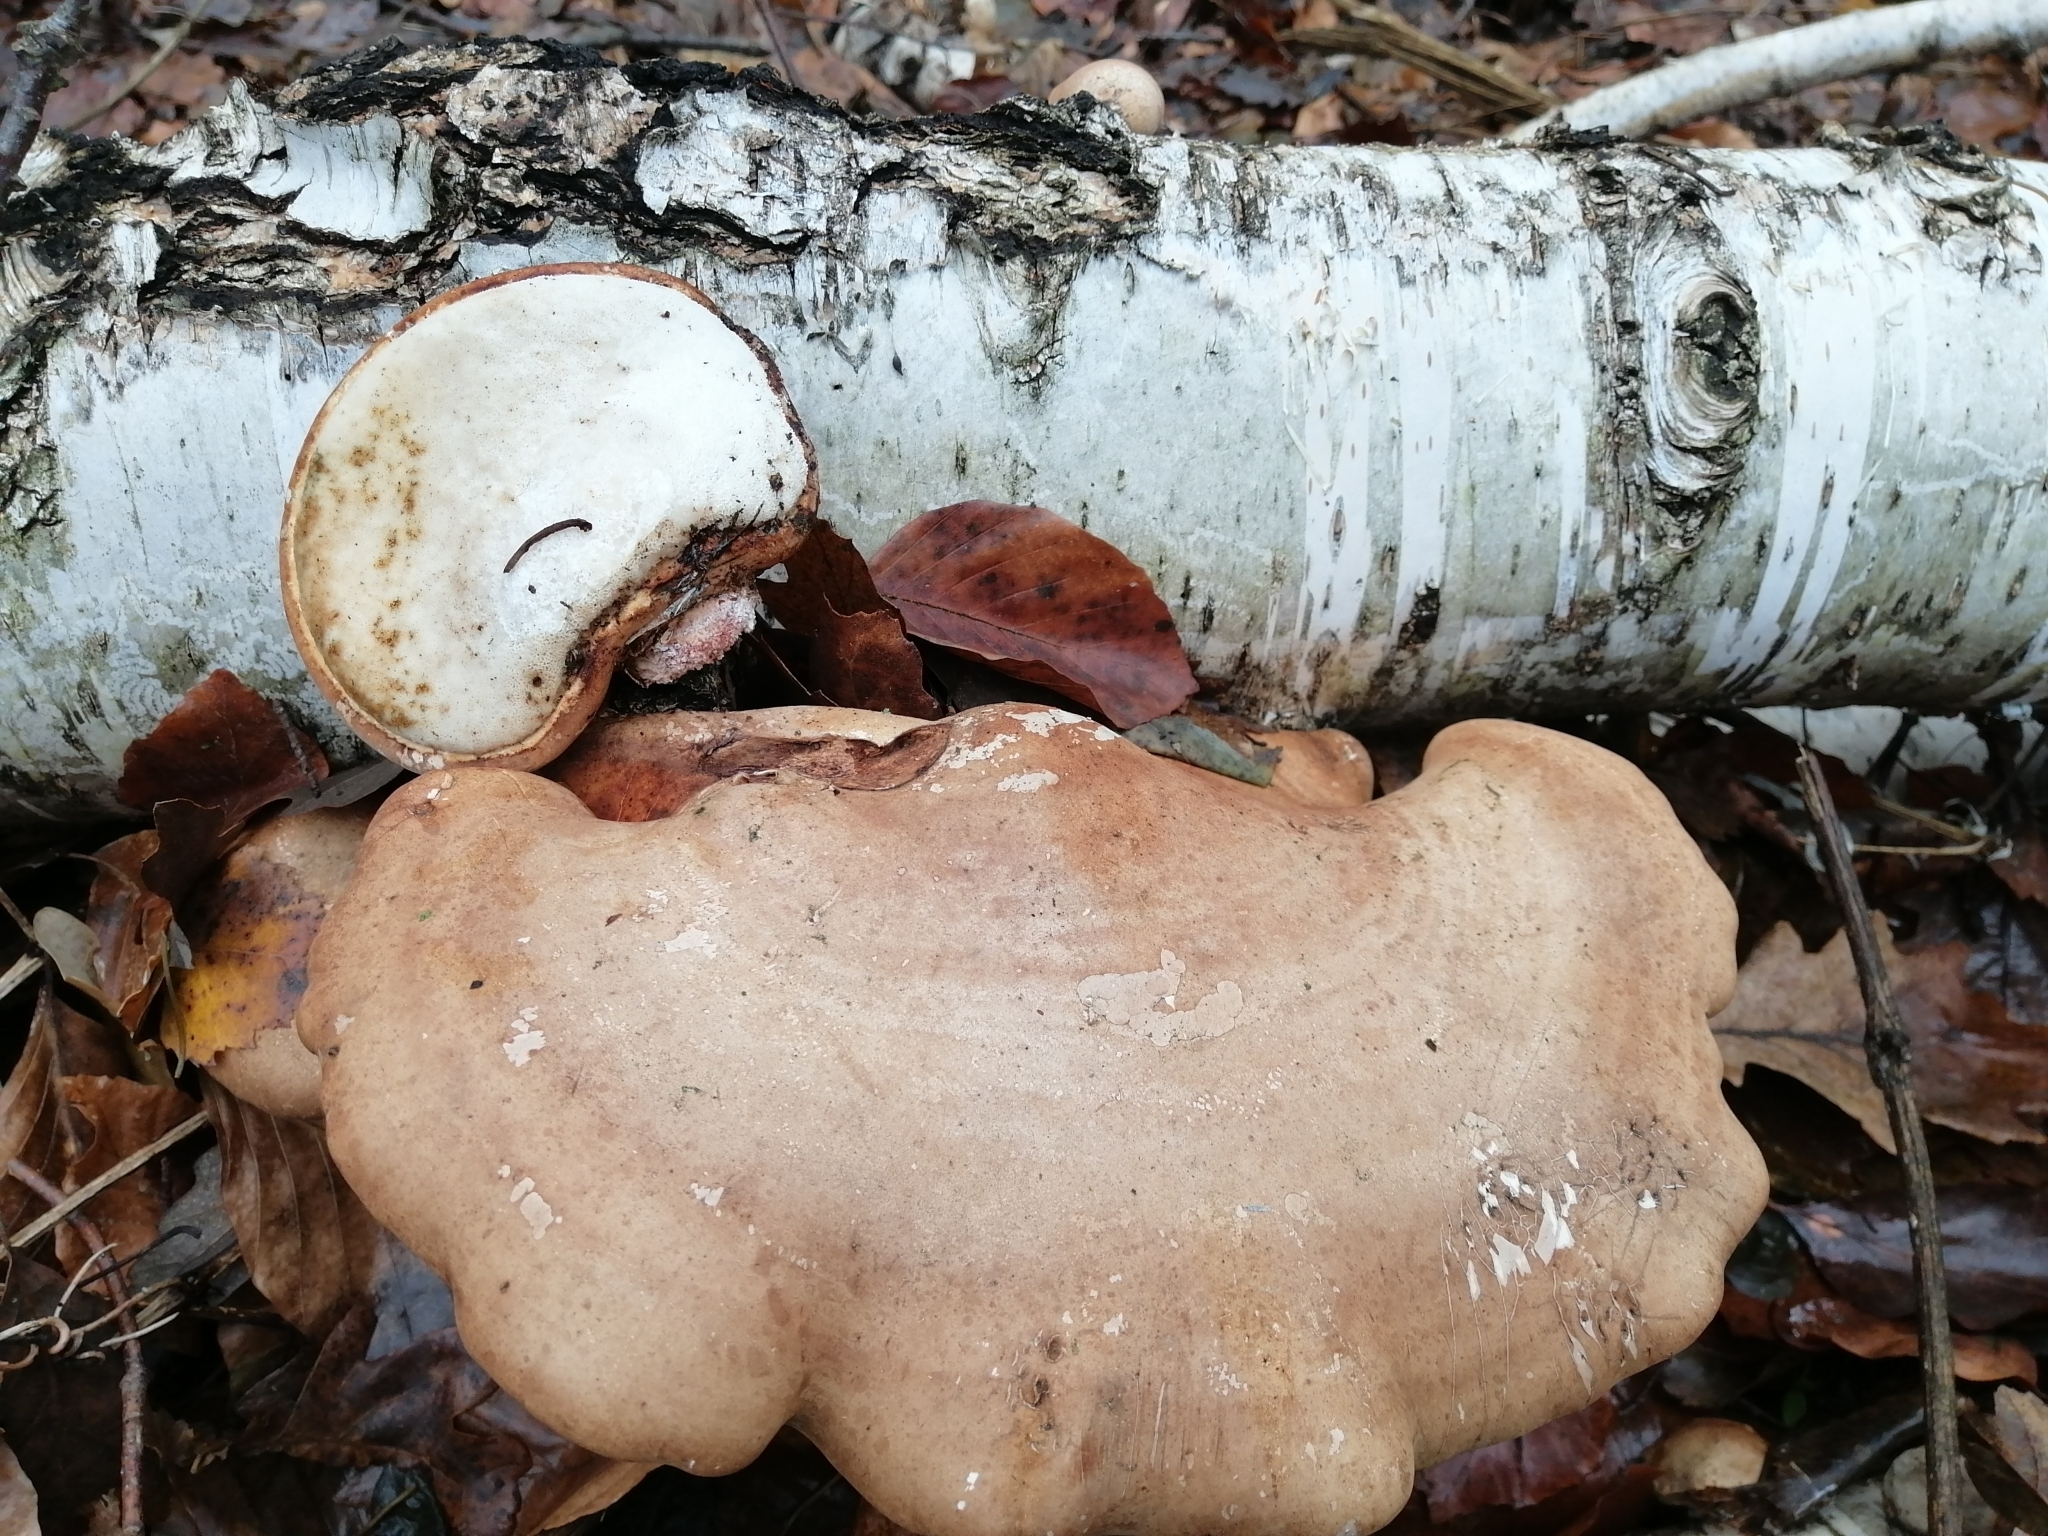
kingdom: Fungi
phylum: Basidiomycota
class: Agaricomycetes
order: Polyporales
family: Fomitopsidaceae
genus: Fomitopsis
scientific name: Fomitopsis betulina
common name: Birch polypore
